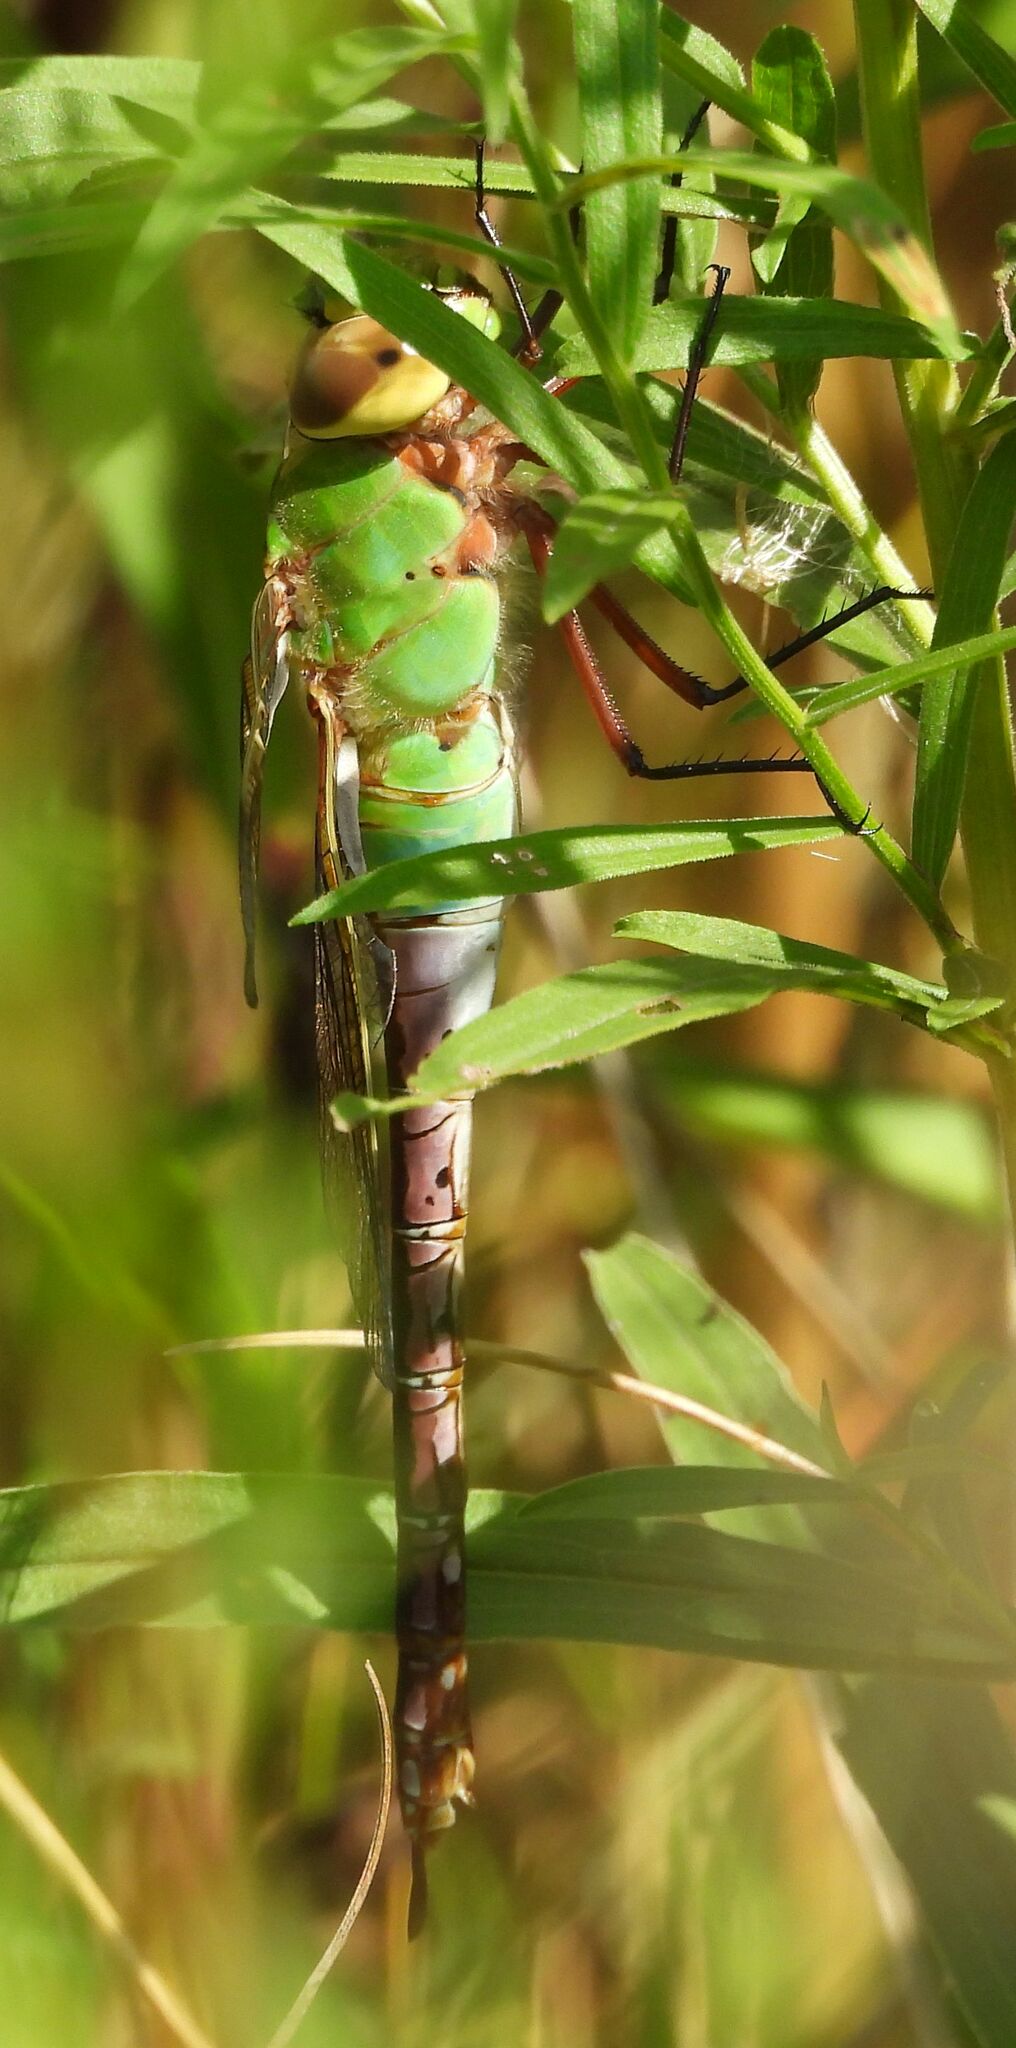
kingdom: Animalia
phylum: Arthropoda
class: Insecta
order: Odonata
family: Aeshnidae
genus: Anax
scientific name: Anax junius
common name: Common green darner
